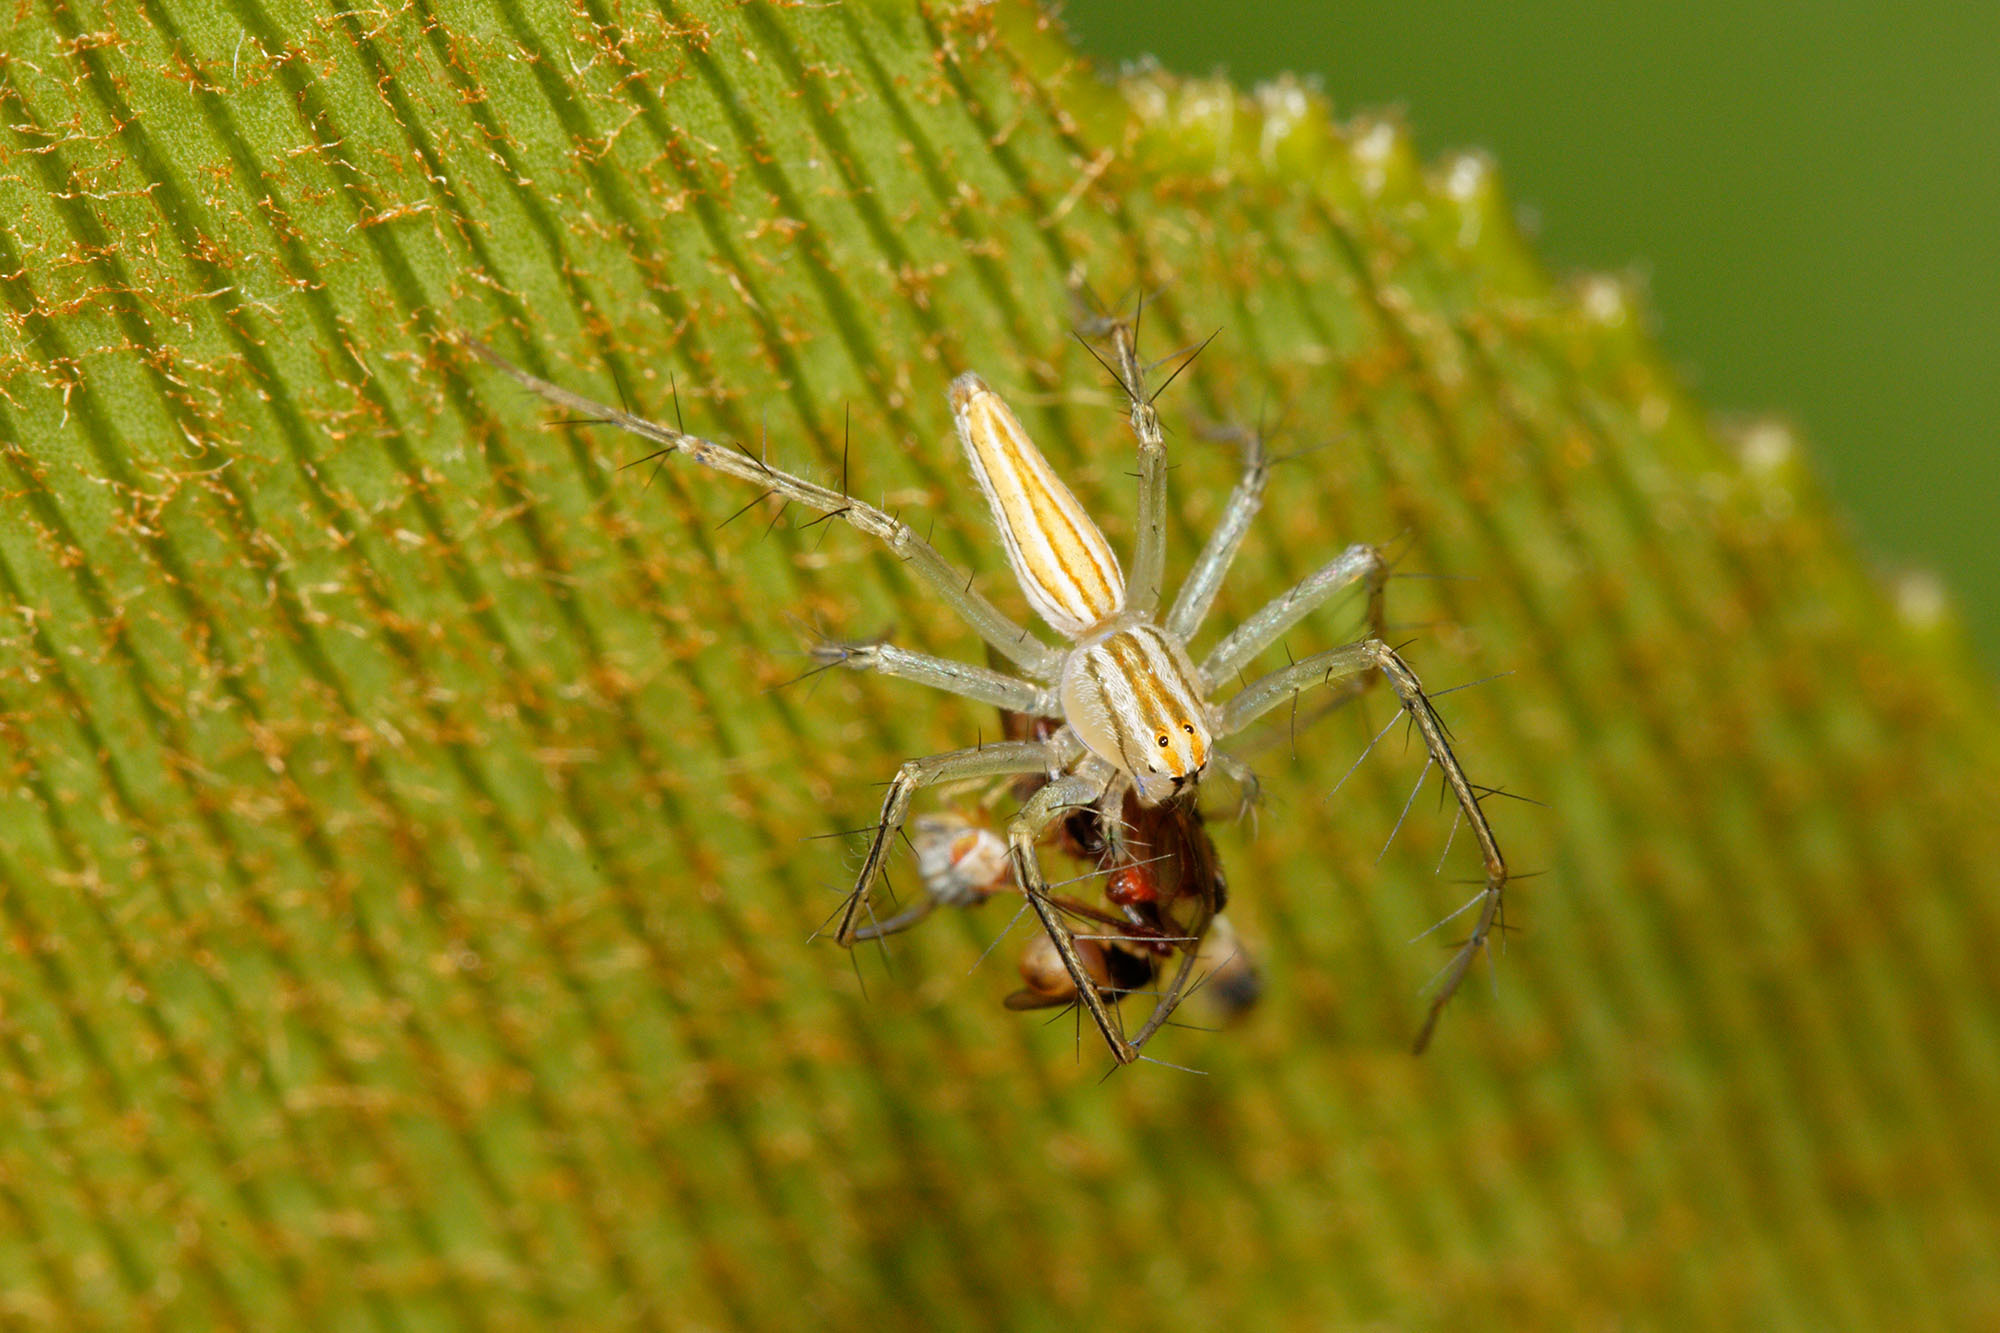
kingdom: Animalia
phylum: Arthropoda
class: Arachnida
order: Araneae
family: Oxyopidae
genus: Oxyopes
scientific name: Oxyopes macilentus
